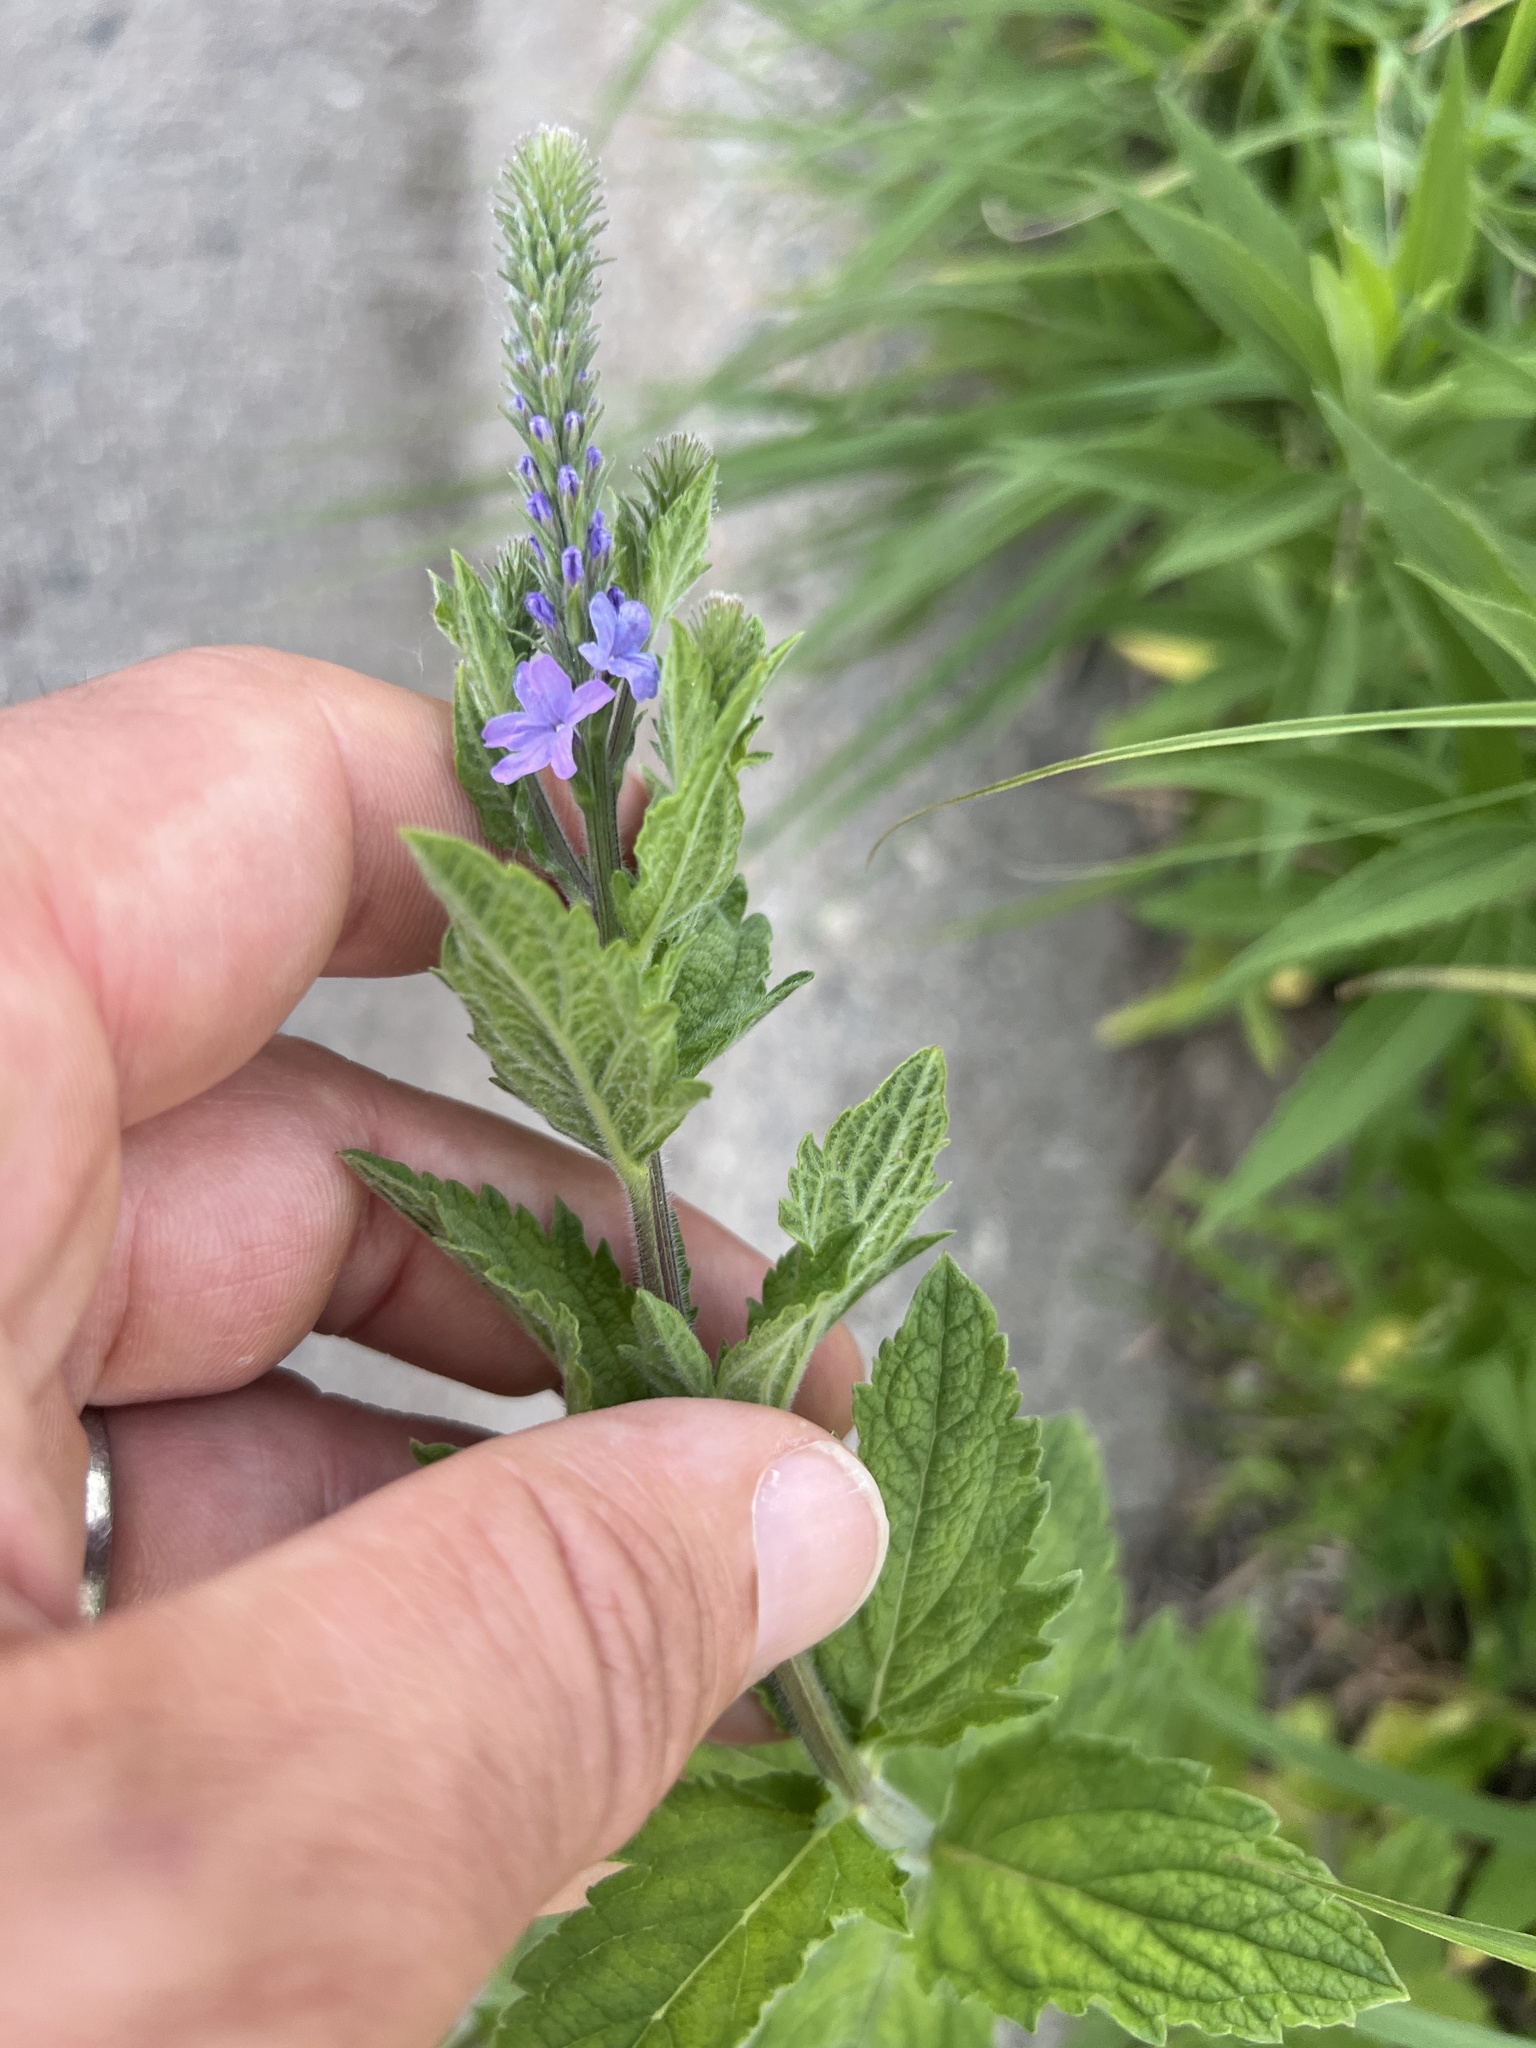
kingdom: Plantae
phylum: Tracheophyta
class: Magnoliopsida
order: Lamiales
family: Verbenaceae
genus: Verbena
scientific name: Verbena stricta
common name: Hoary vervain
